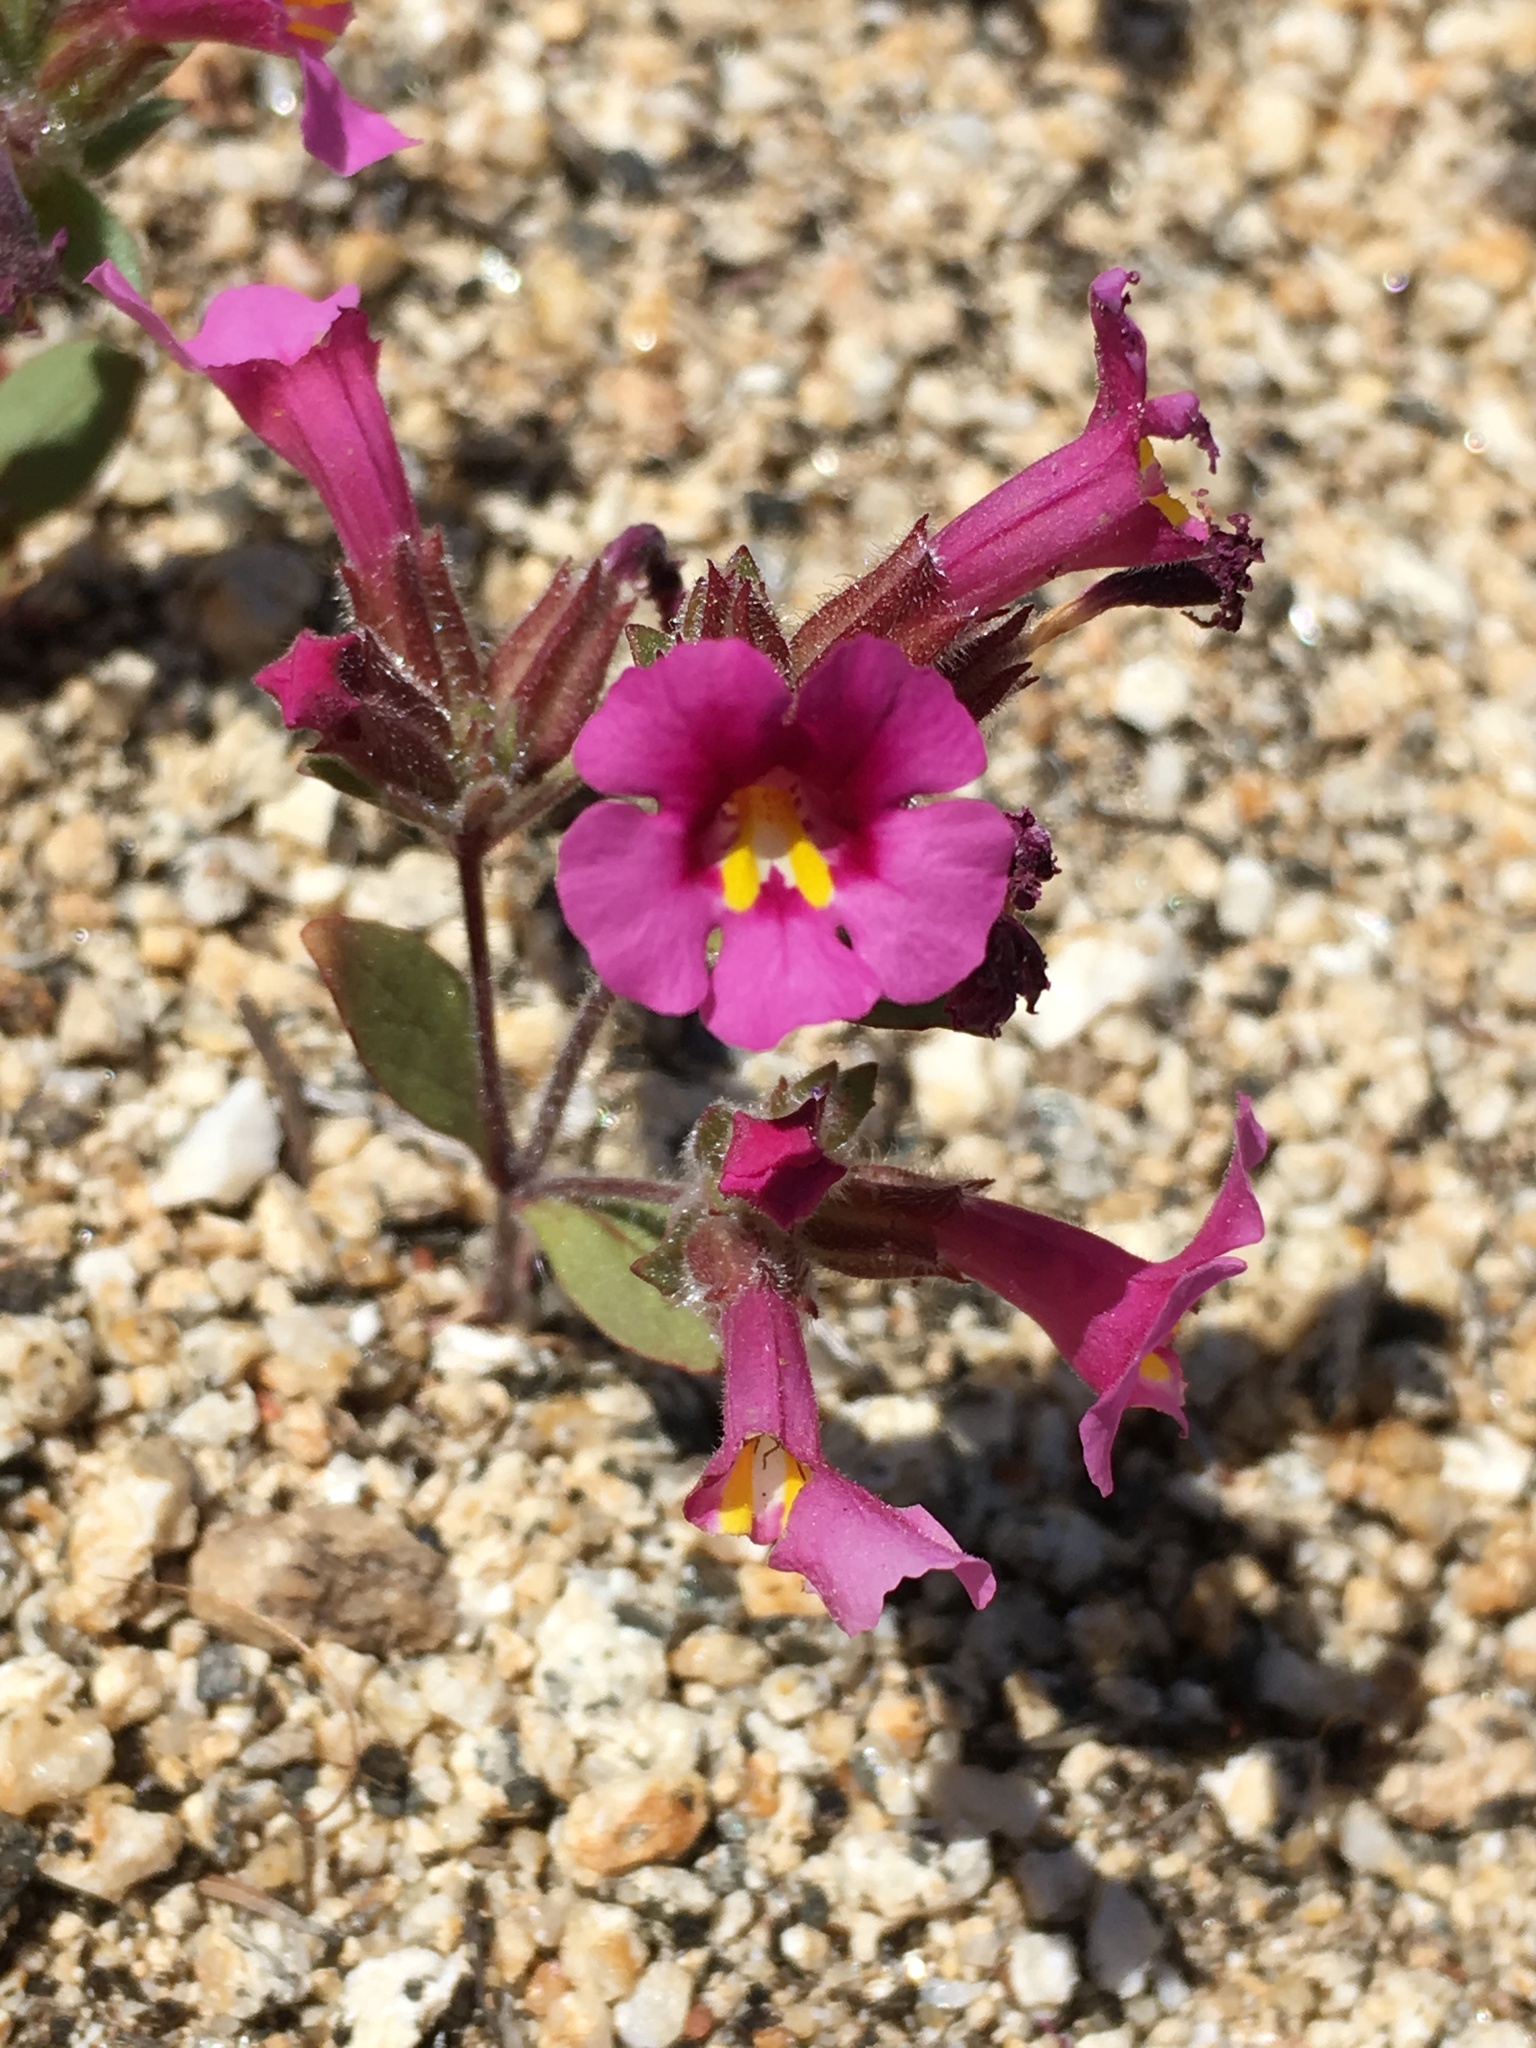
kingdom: Plantae
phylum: Tracheophyta
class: Magnoliopsida
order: Lamiales
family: Phrymaceae
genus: Diplacus
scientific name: Diplacus fremontii
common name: Fremont's monkey-flower
